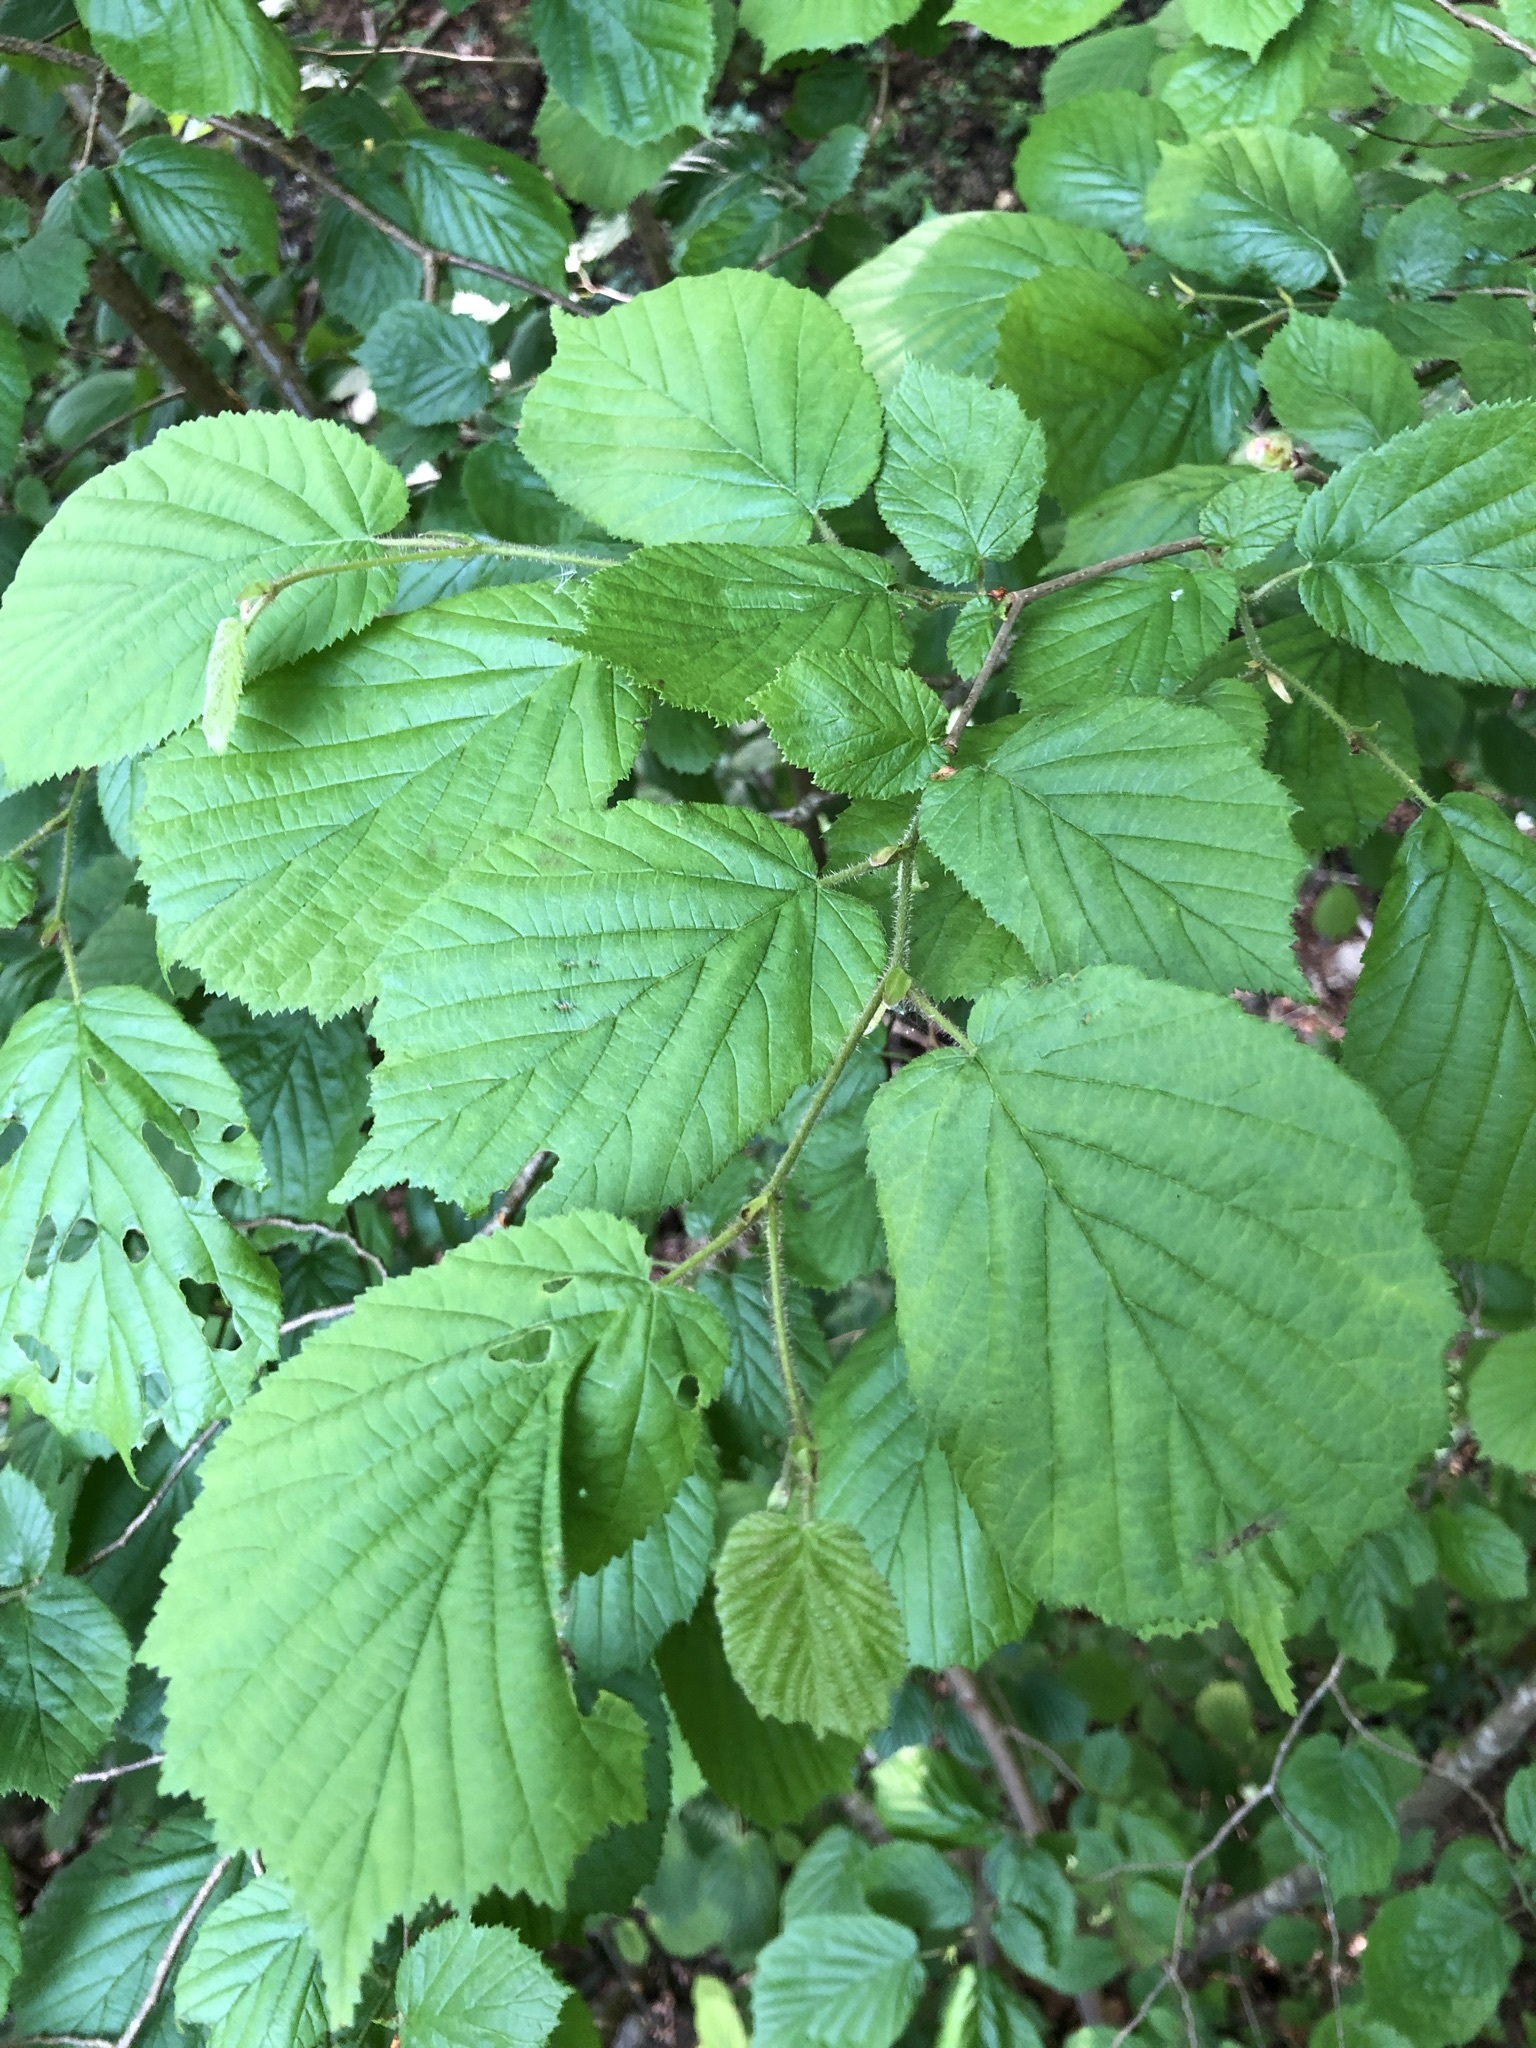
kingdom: Plantae
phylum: Tracheophyta
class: Magnoliopsida
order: Fagales
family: Betulaceae
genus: Corylus
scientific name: Corylus avellana
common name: European hazel
